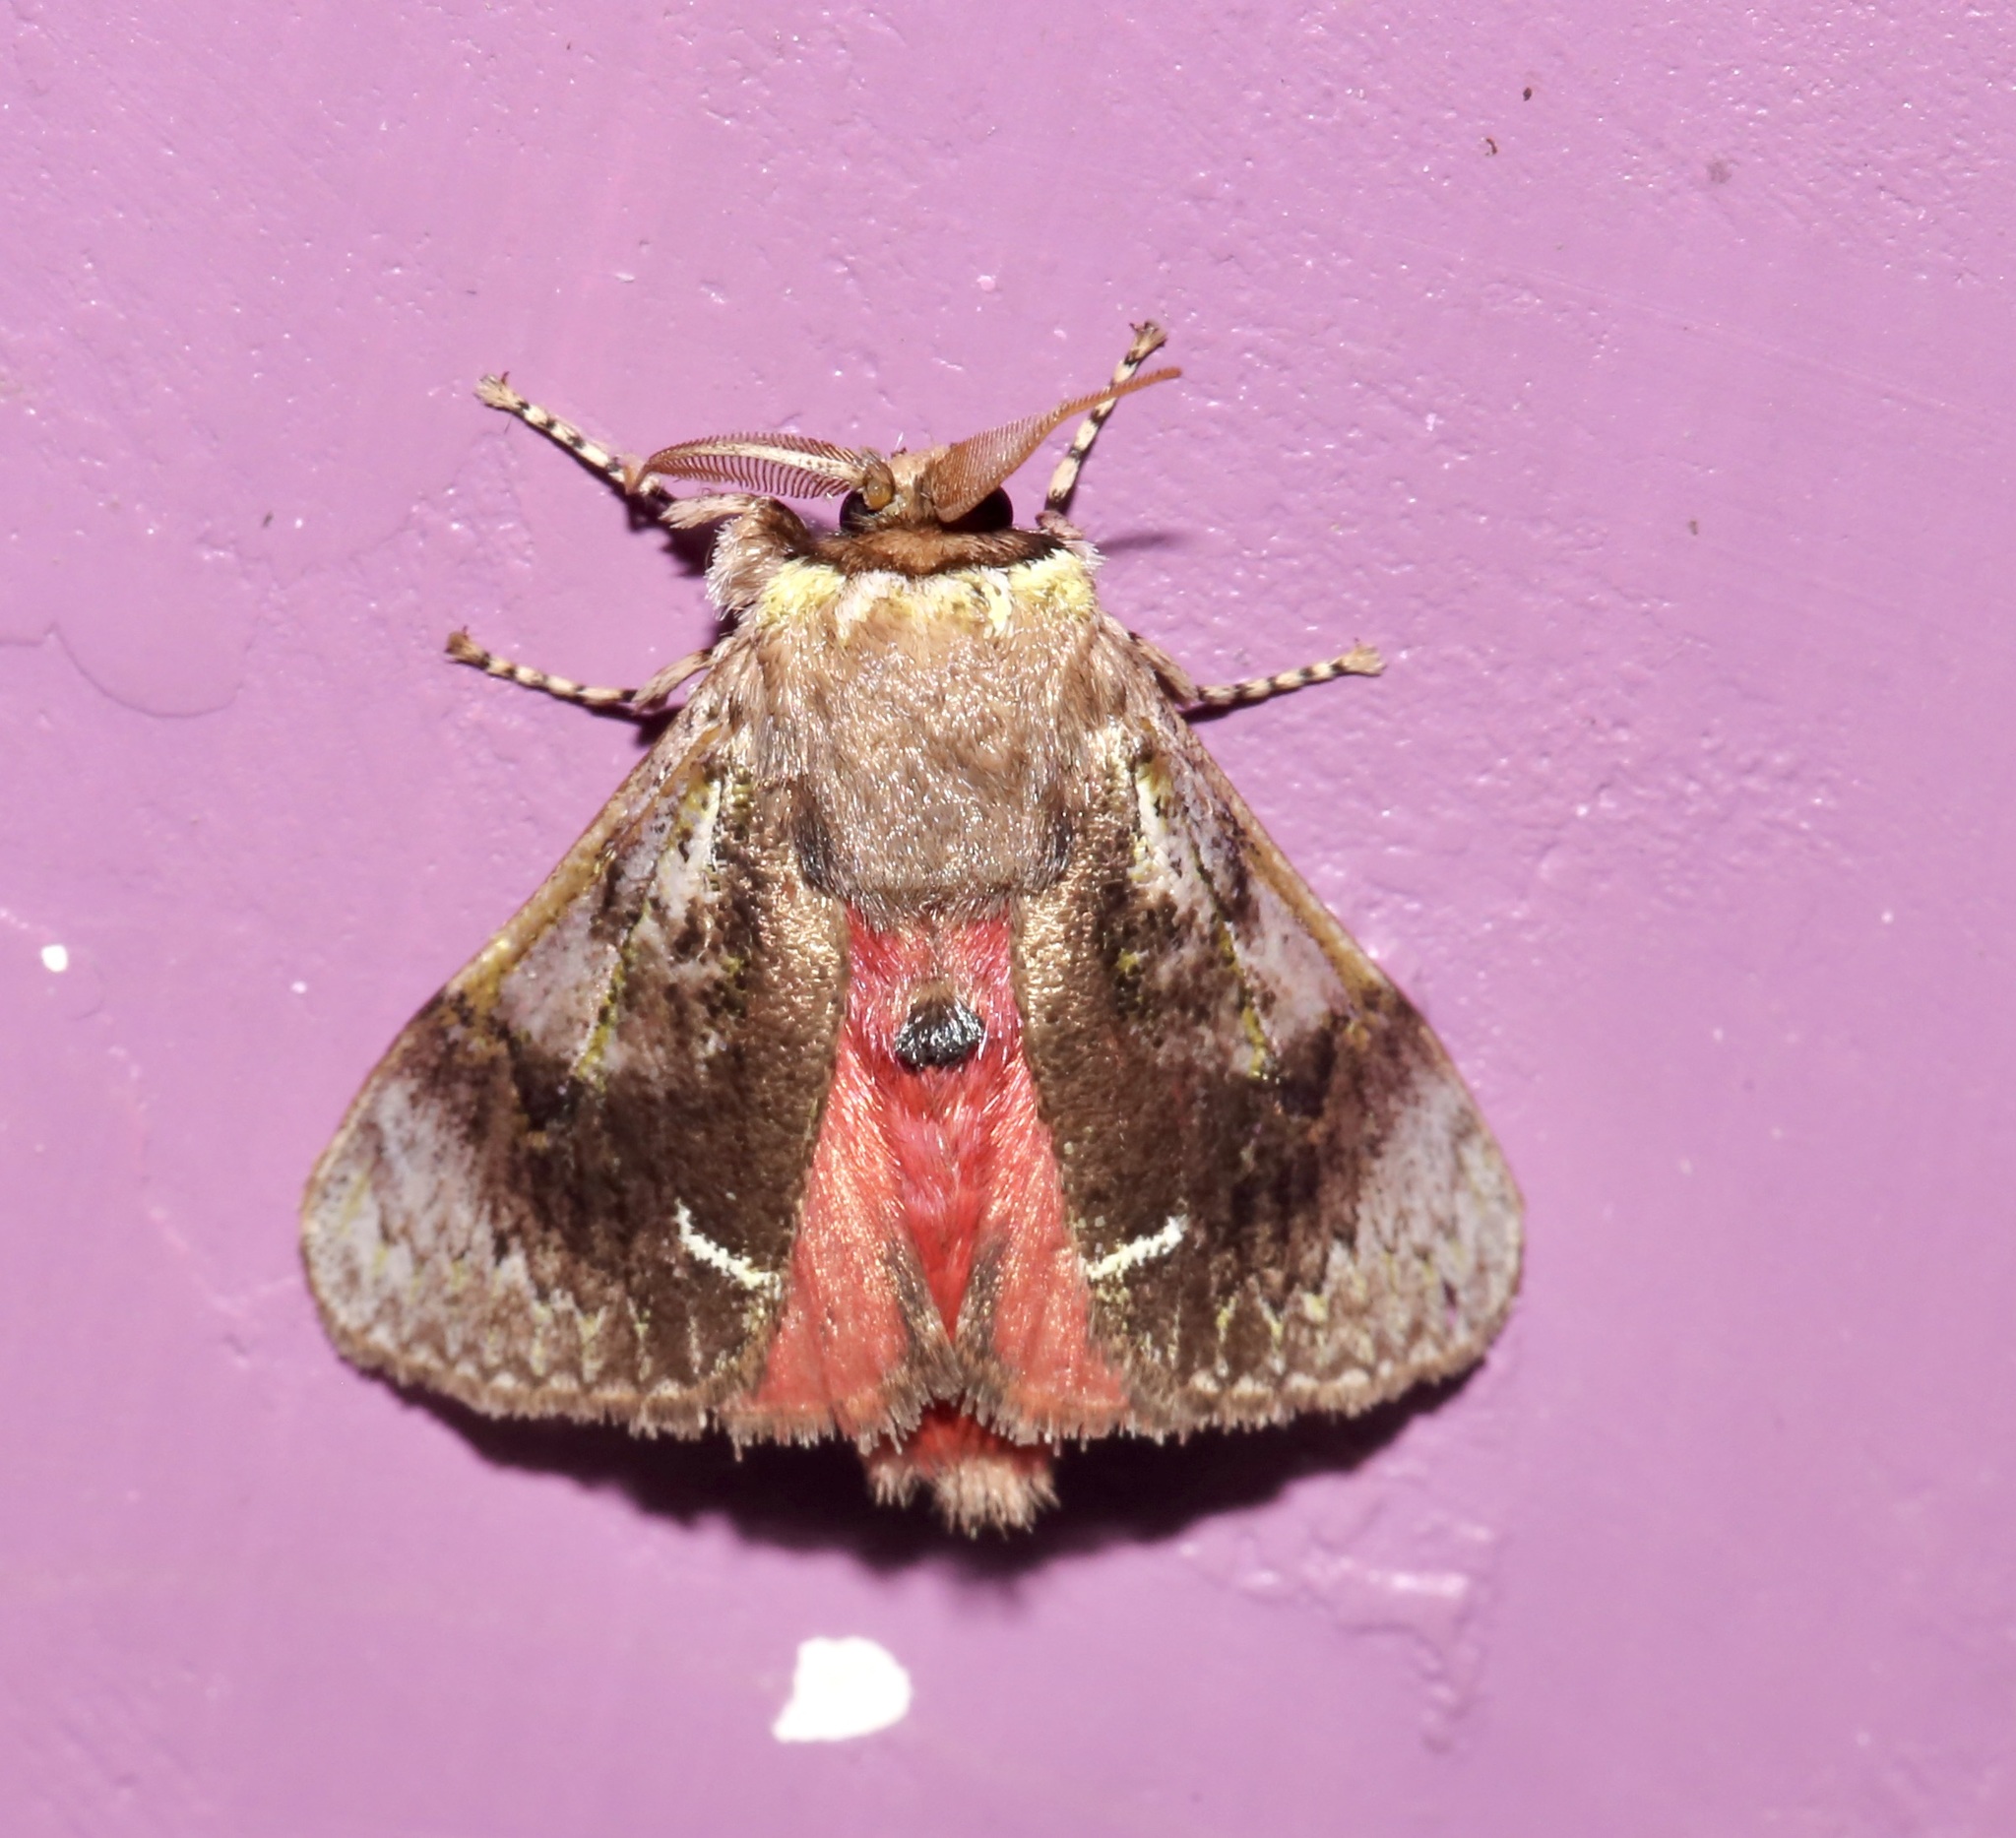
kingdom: Animalia
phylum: Arthropoda
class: Insecta
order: Lepidoptera
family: Aididae
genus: Aidos
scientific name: Aidos yamouna
